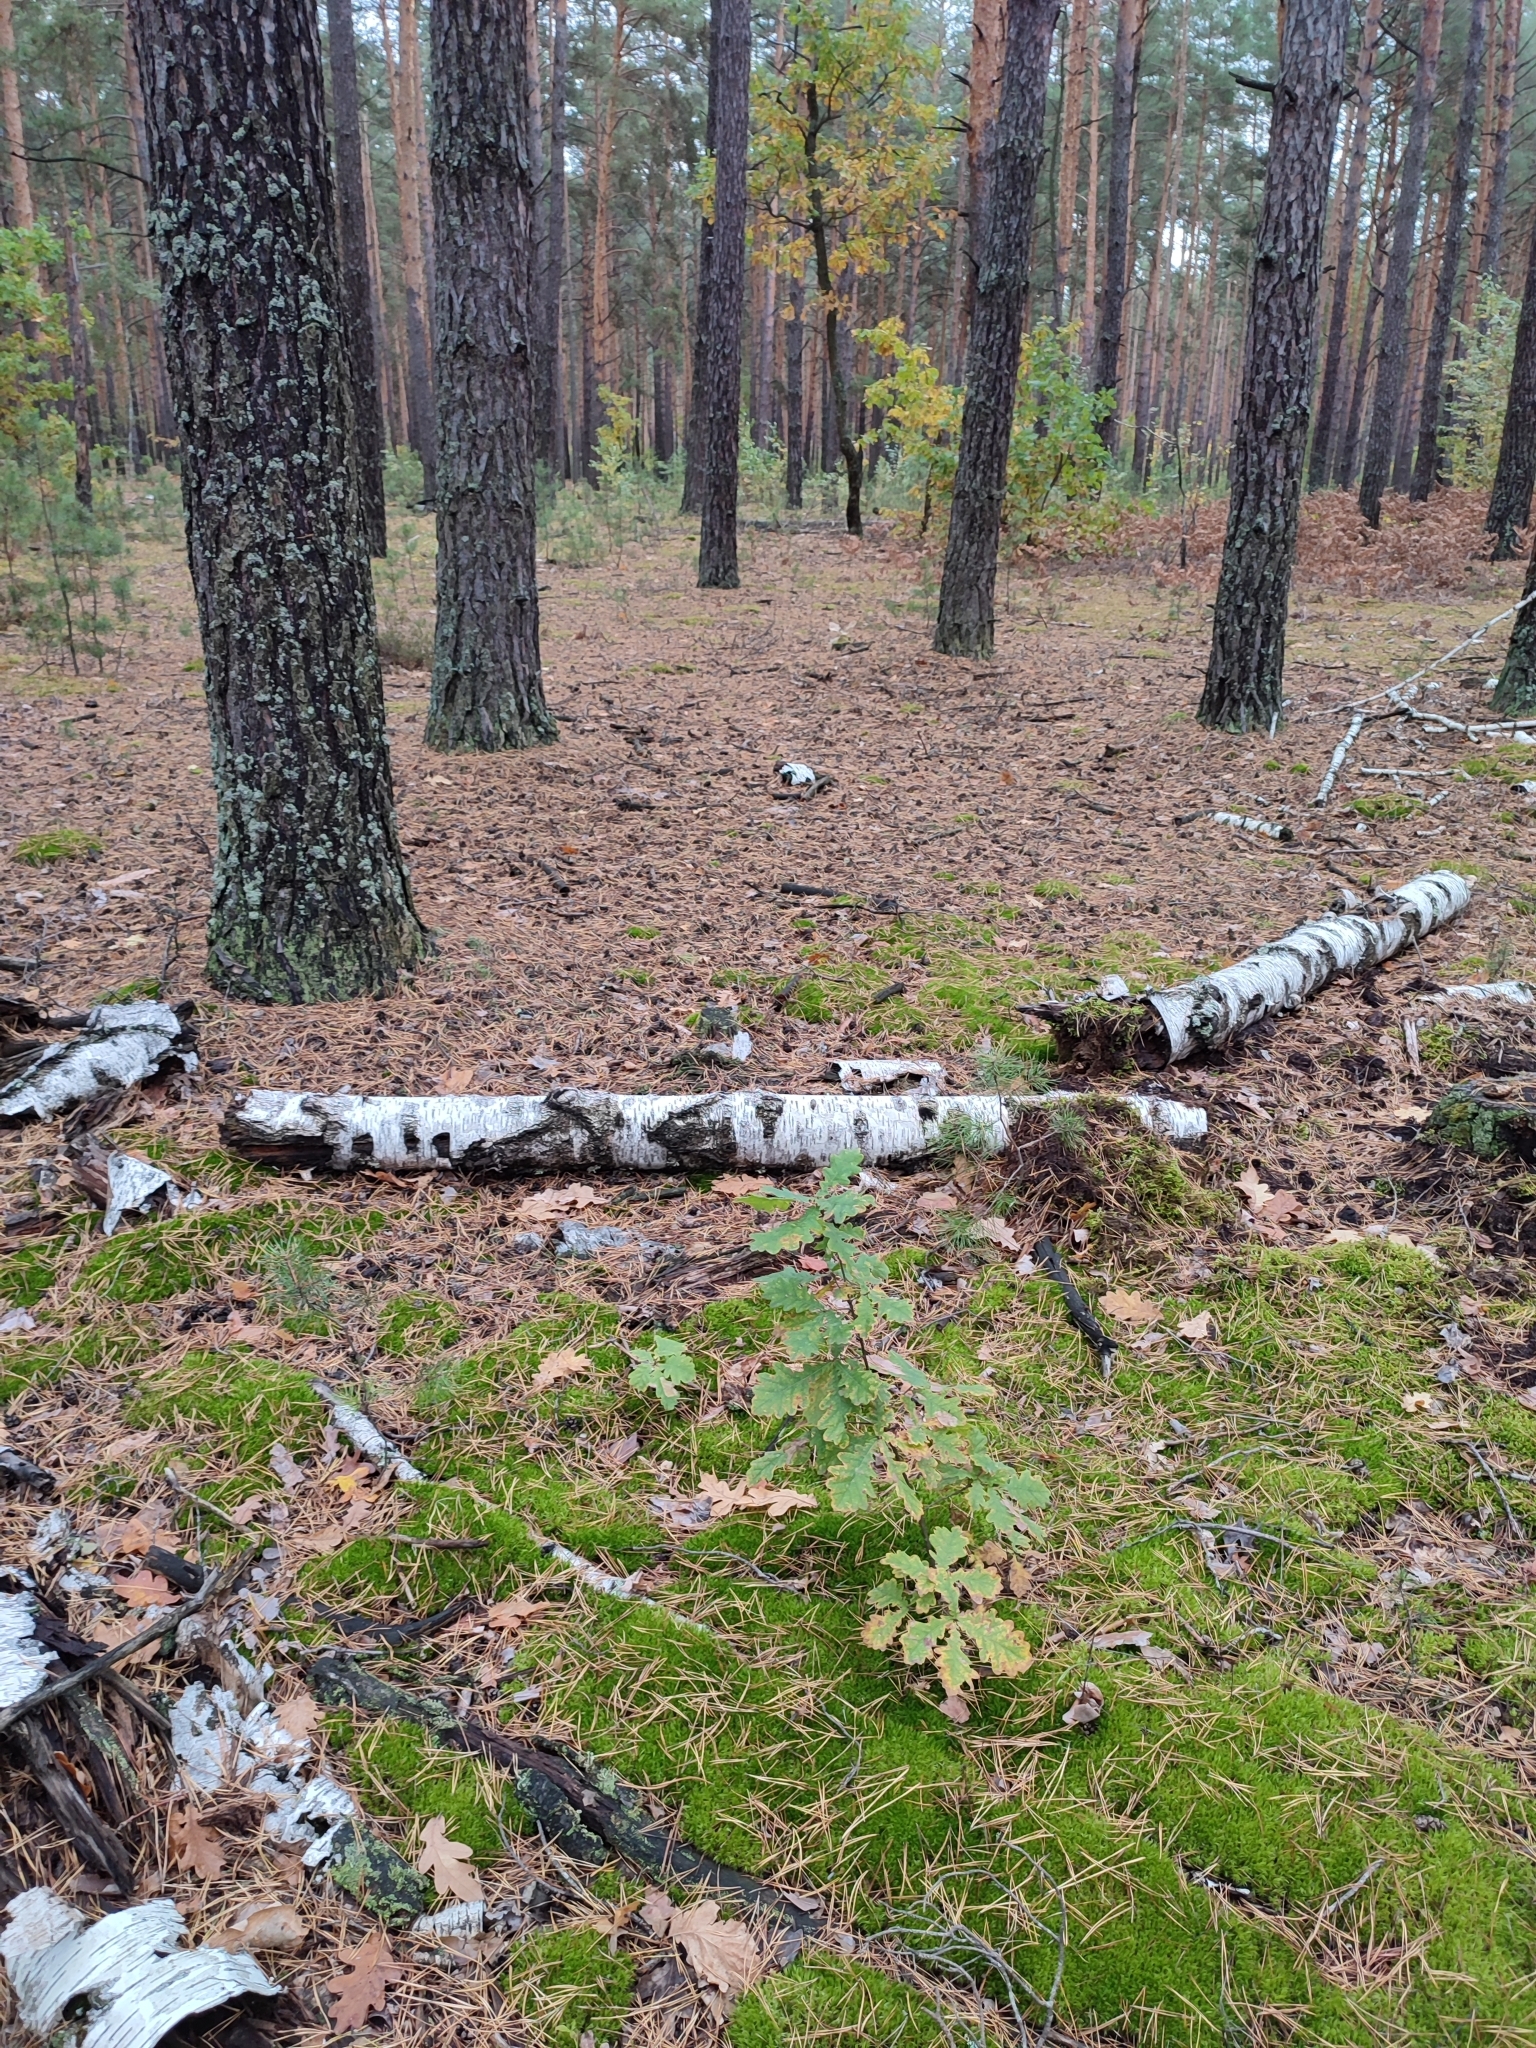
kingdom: Plantae
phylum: Tracheophyta
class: Magnoliopsida
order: Fagales
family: Fagaceae
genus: Quercus
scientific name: Quercus robur
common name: Pedunculate oak
